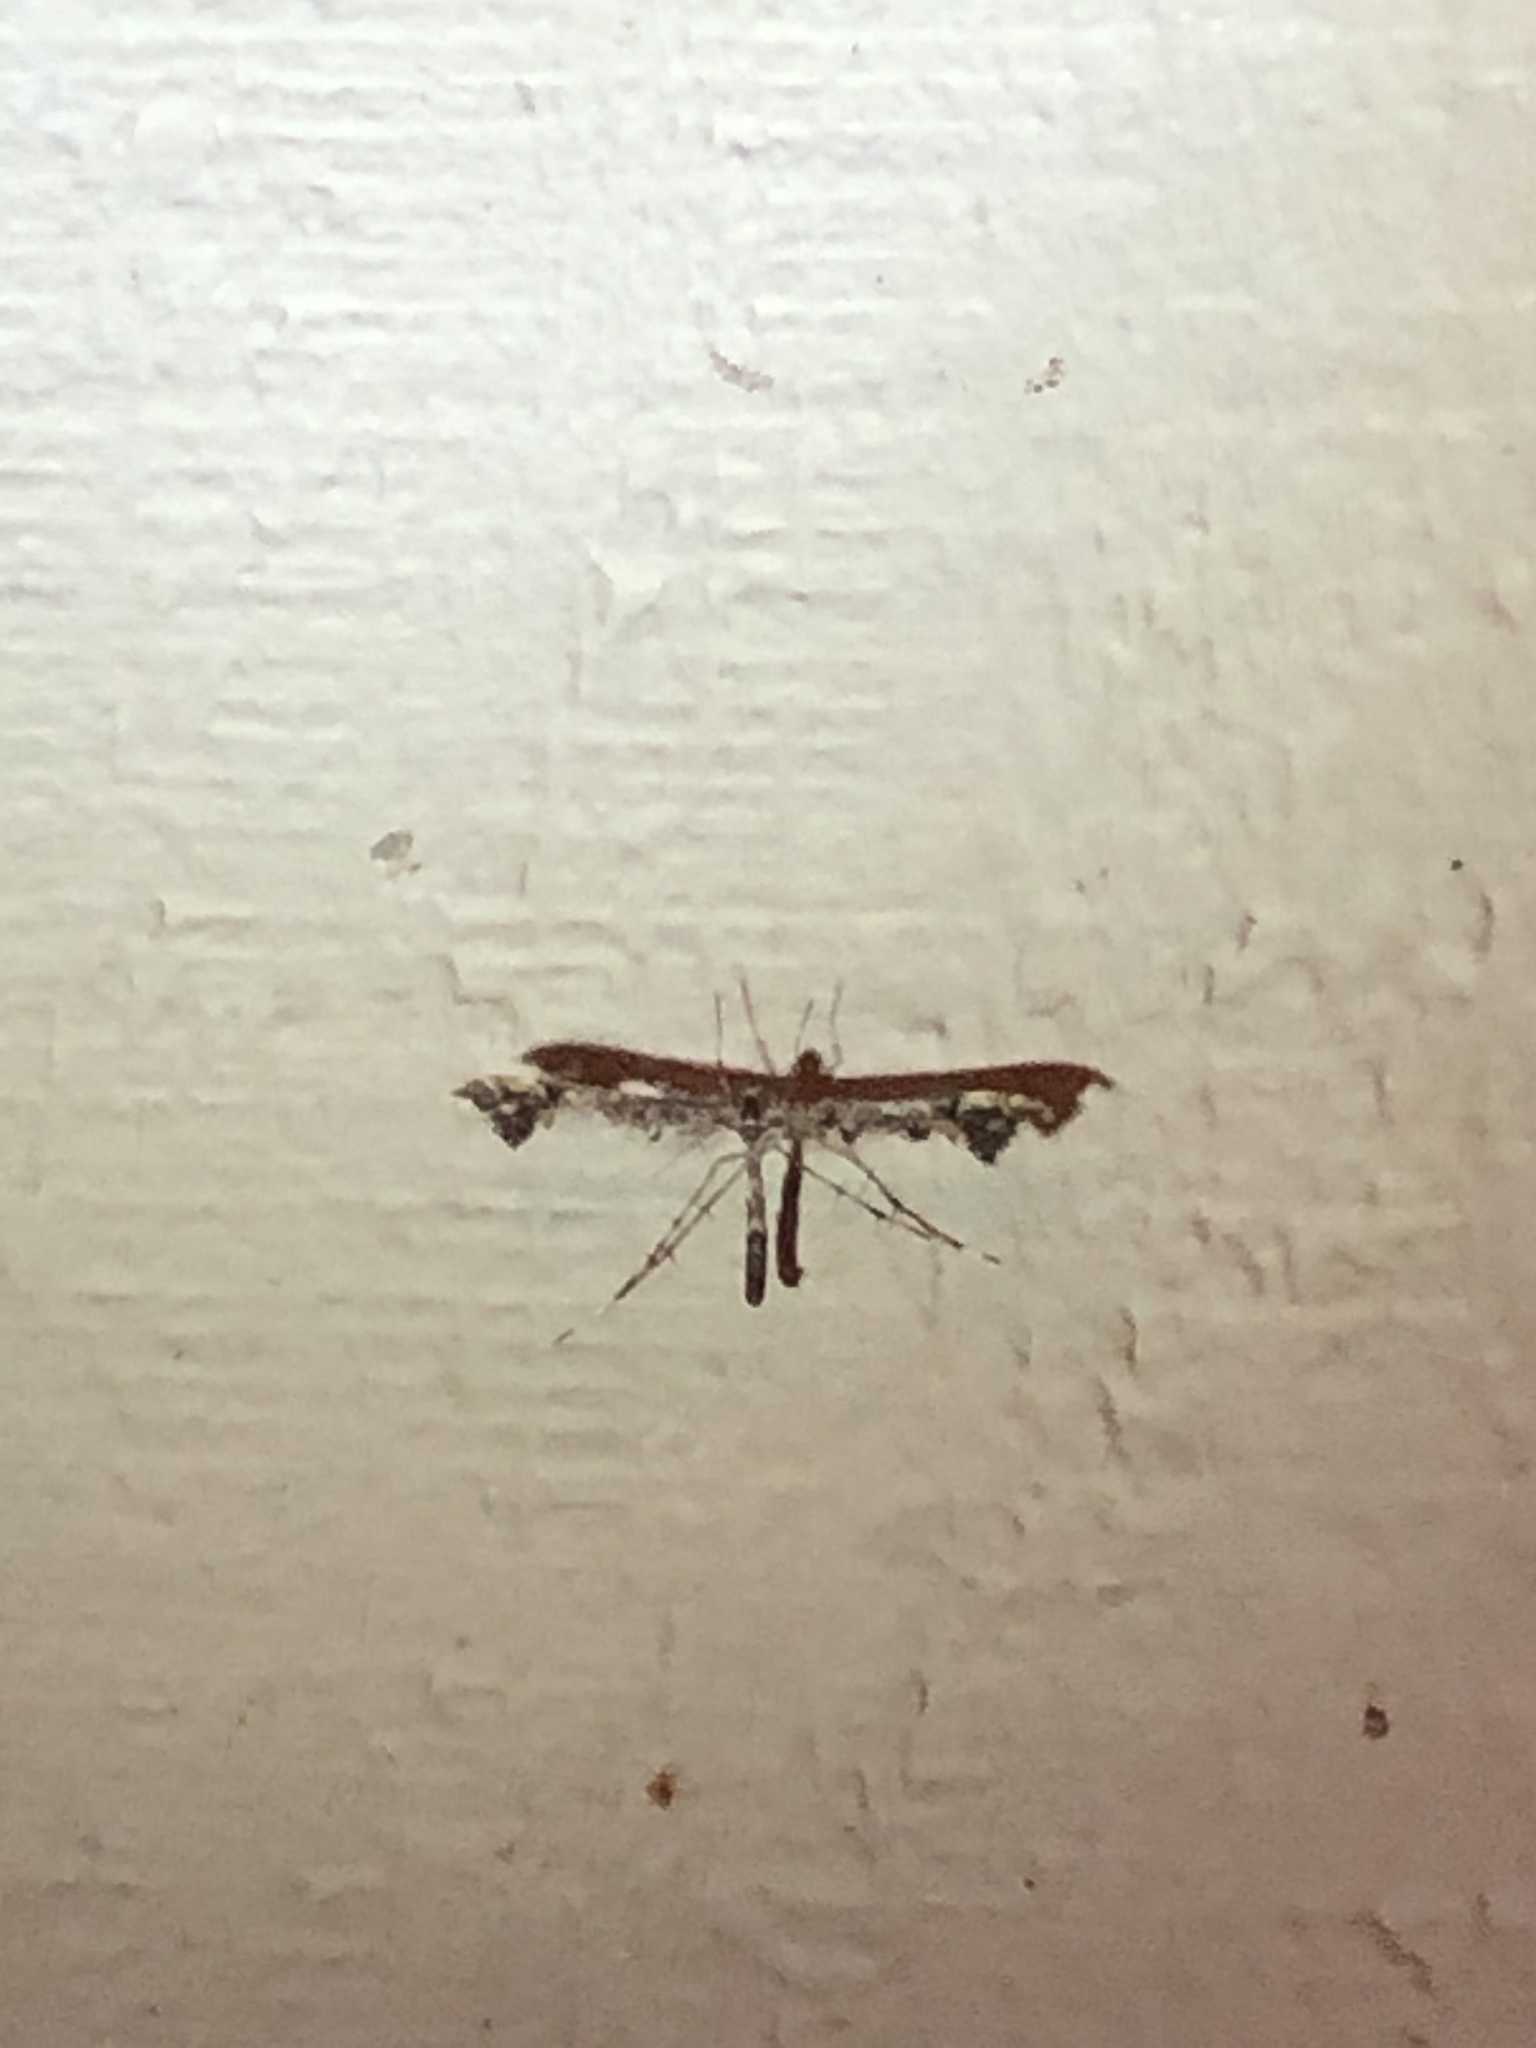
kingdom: Animalia
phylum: Arthropoda
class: Insecta
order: Lepidoptera
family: Pterophoridae
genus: Amblyptilia
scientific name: Amblyptilia pica
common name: Geranium plume moth
